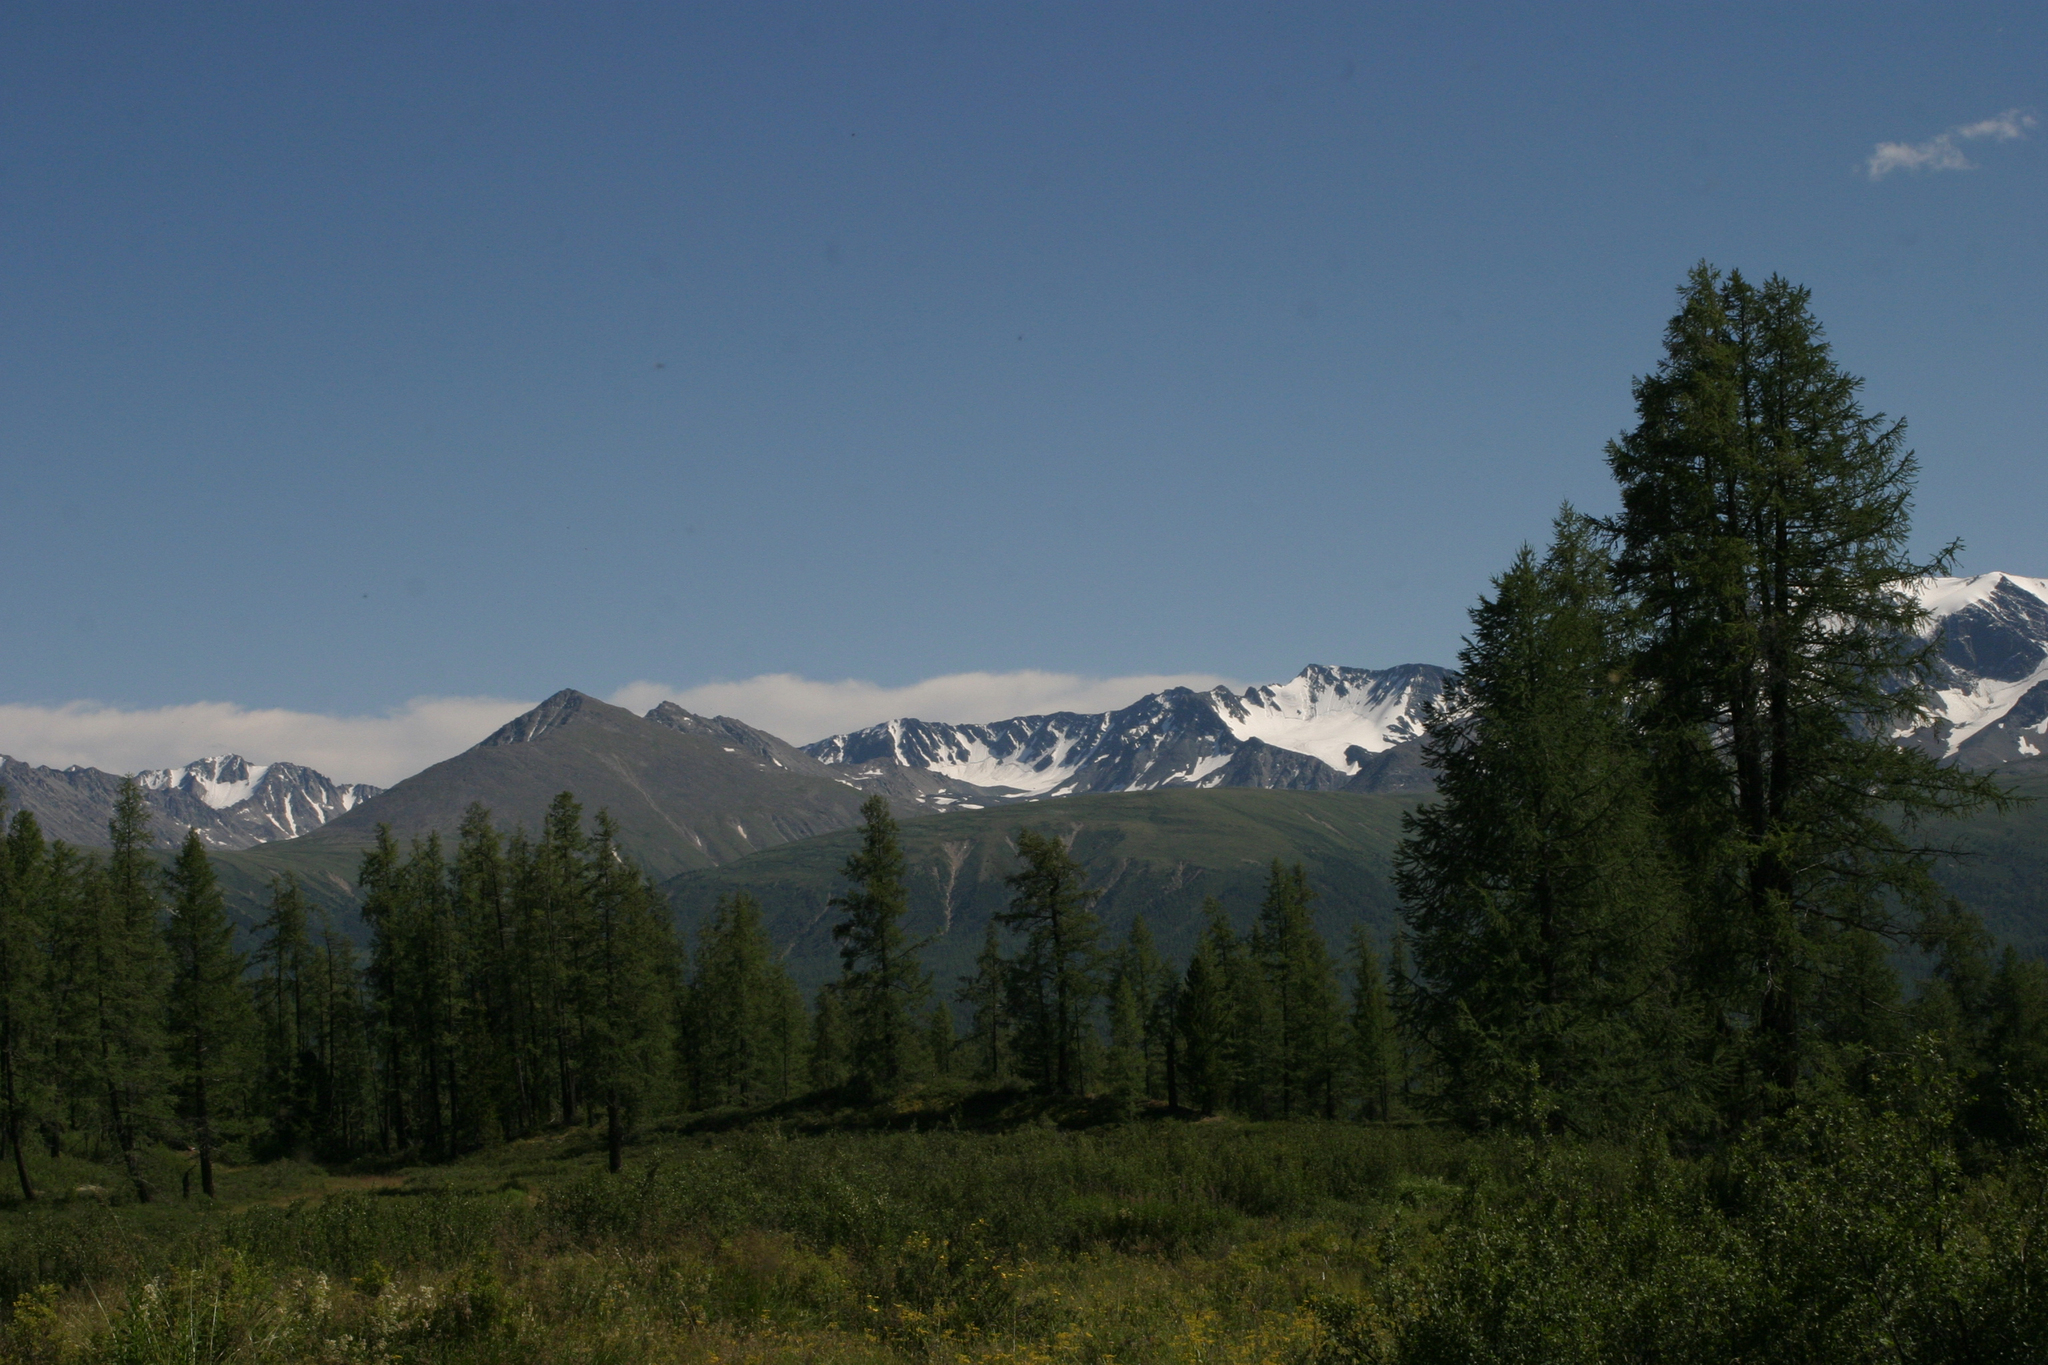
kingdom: Plantae
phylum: Tracheophyta
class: Pinopsida
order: Pinales
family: Pinaceae
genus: Larix
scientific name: Larix sibirica
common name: Siberian larch
